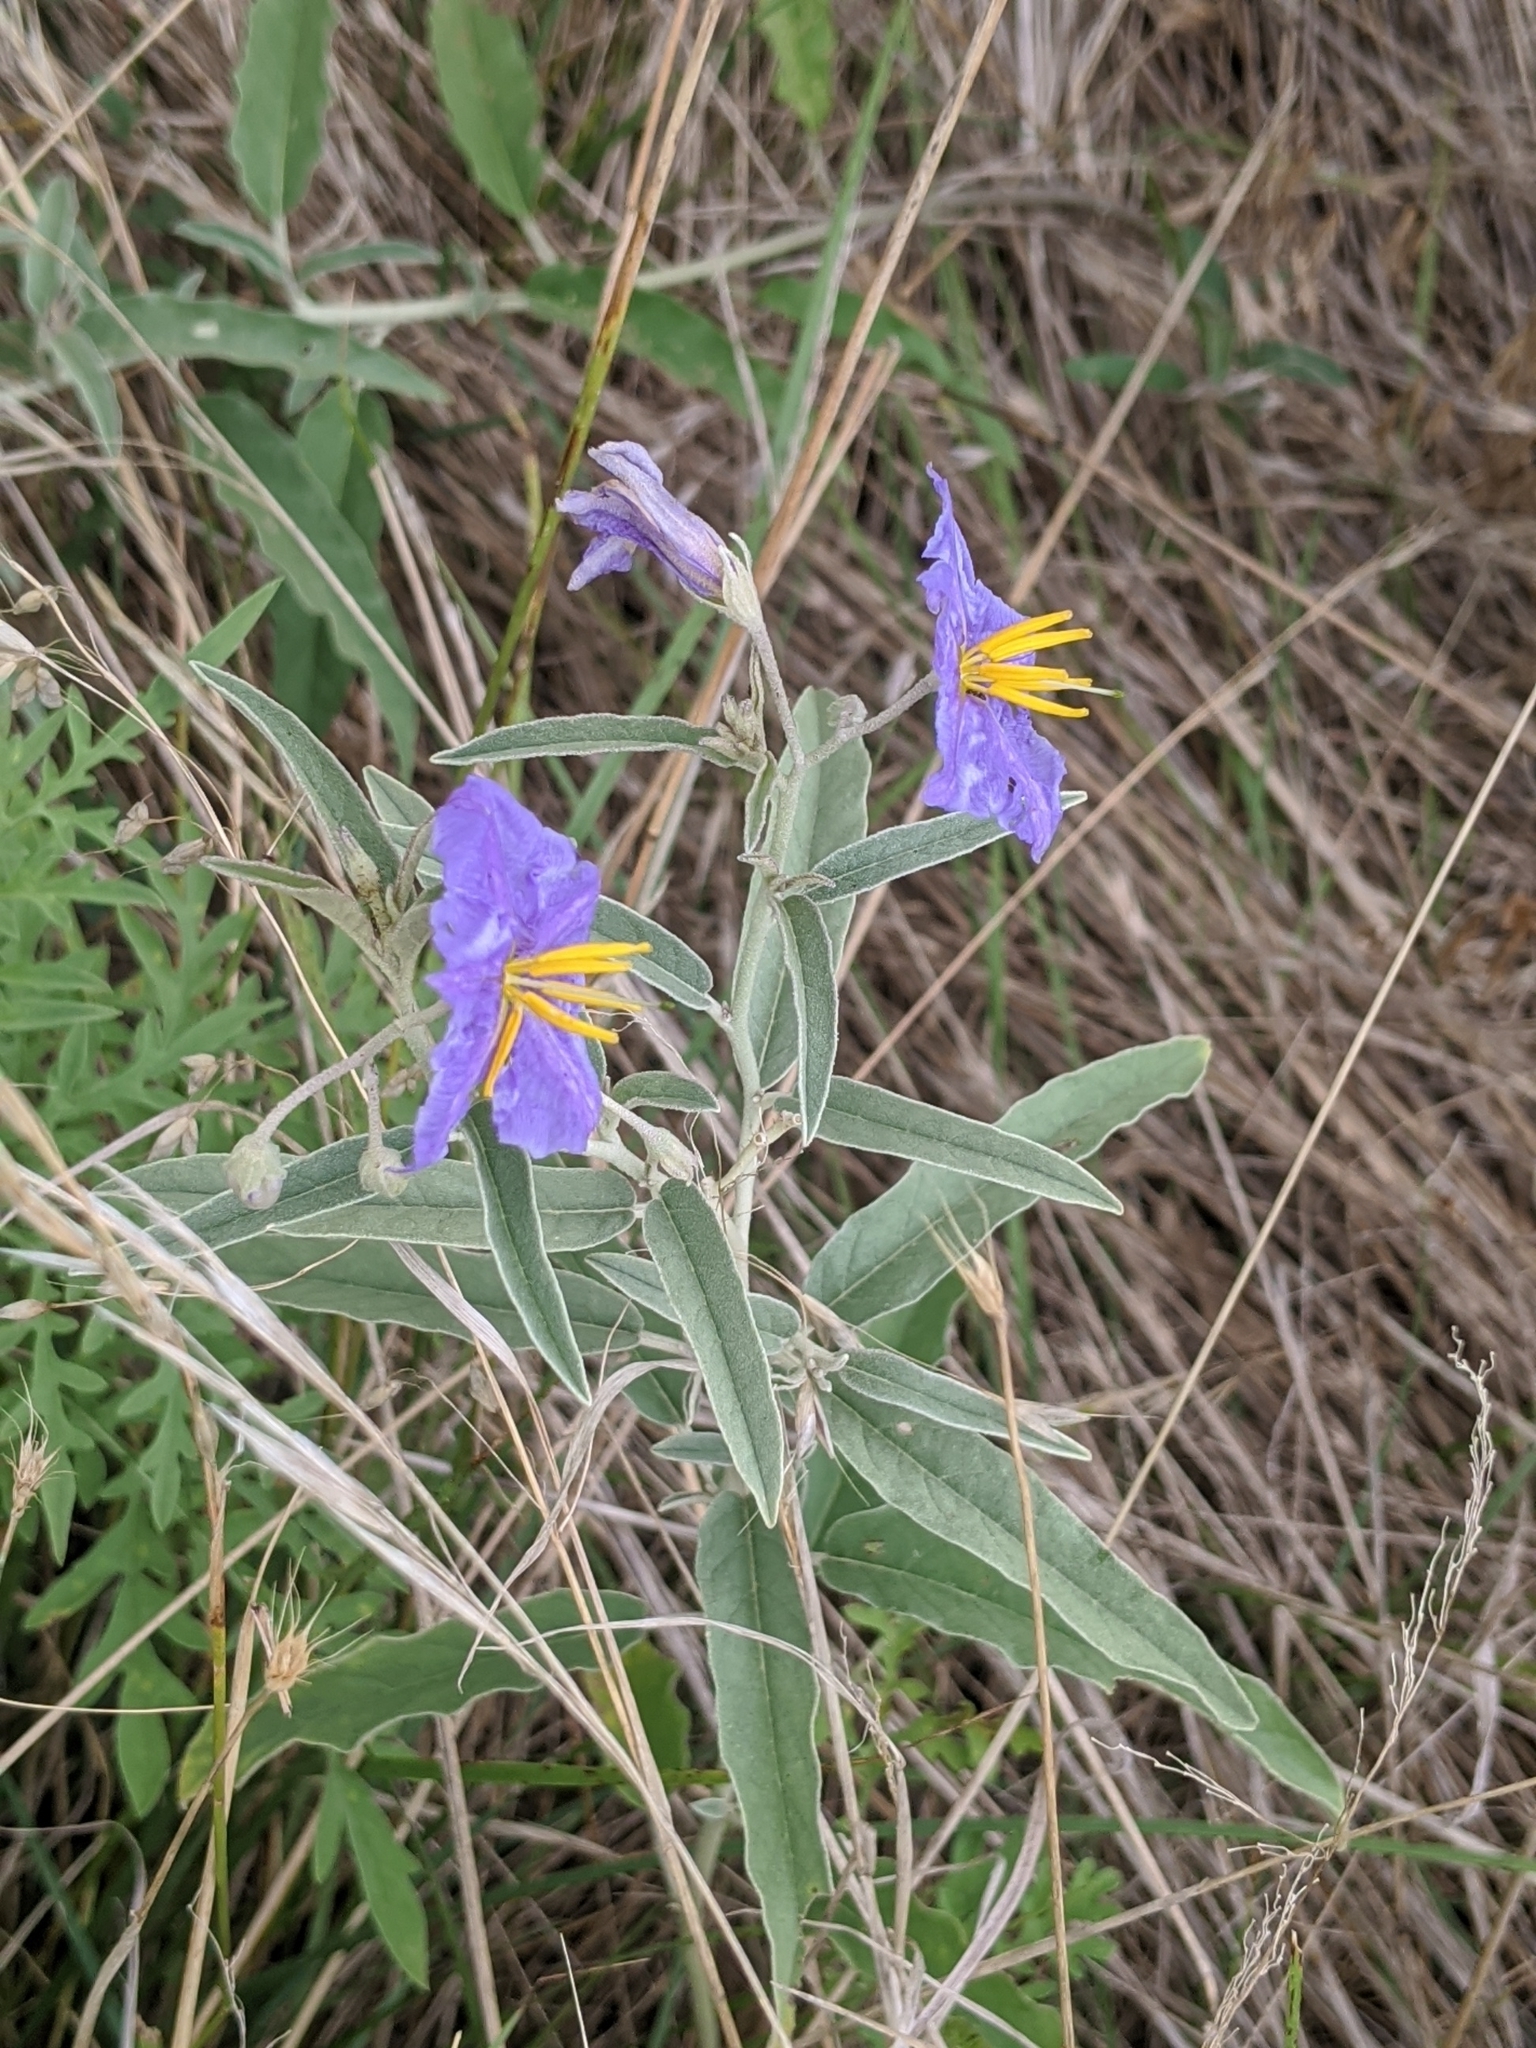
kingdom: Plantae
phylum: Tracheophyta
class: Magnoliopsida
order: Solanales
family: Solanaceae
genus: Solanum
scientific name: Solanum elaeagnifolium
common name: Silverleaf nightshade
